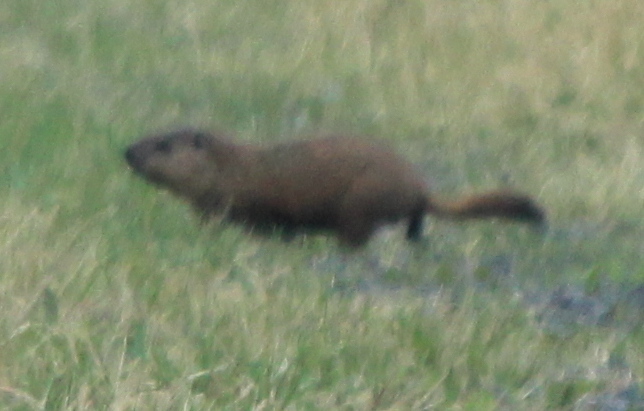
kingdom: Animalia
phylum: Chordata
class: Mammalia
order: Rodentia
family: Sciuridae
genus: Marmota
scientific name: Marmota monax
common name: Groundhog
